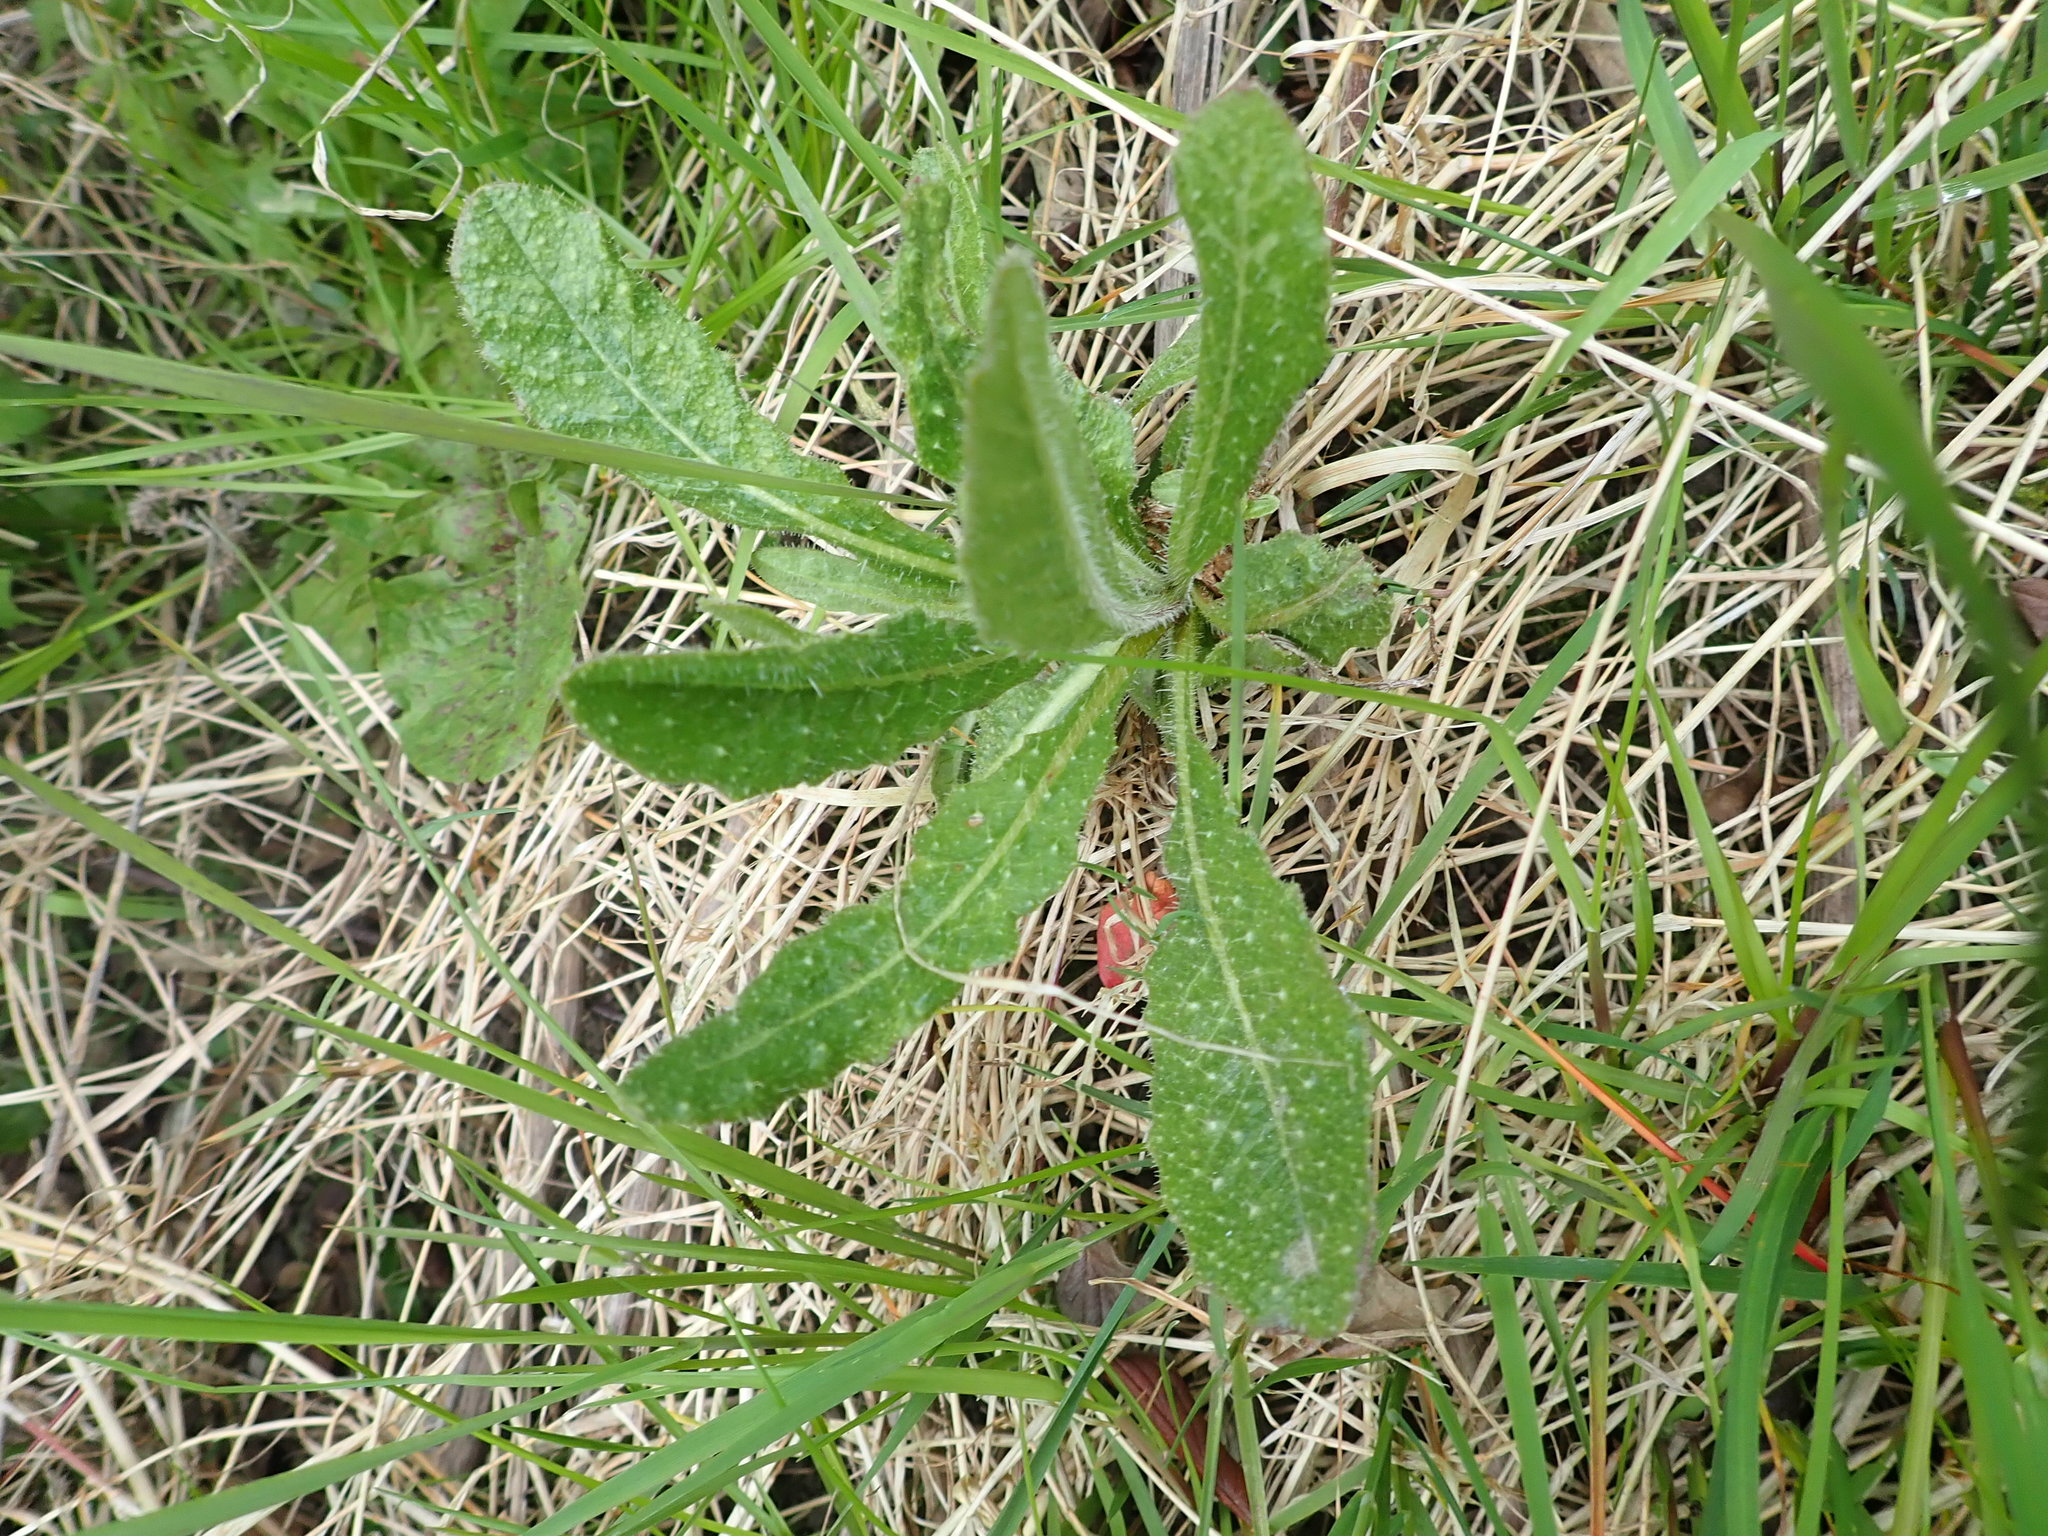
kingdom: Plantae
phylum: Tracheophyta
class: Magnoliopsida
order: Asterales
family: Asteraceae
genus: Helminthotheca
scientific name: Helminthotheca echioides
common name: Ox-tongue
